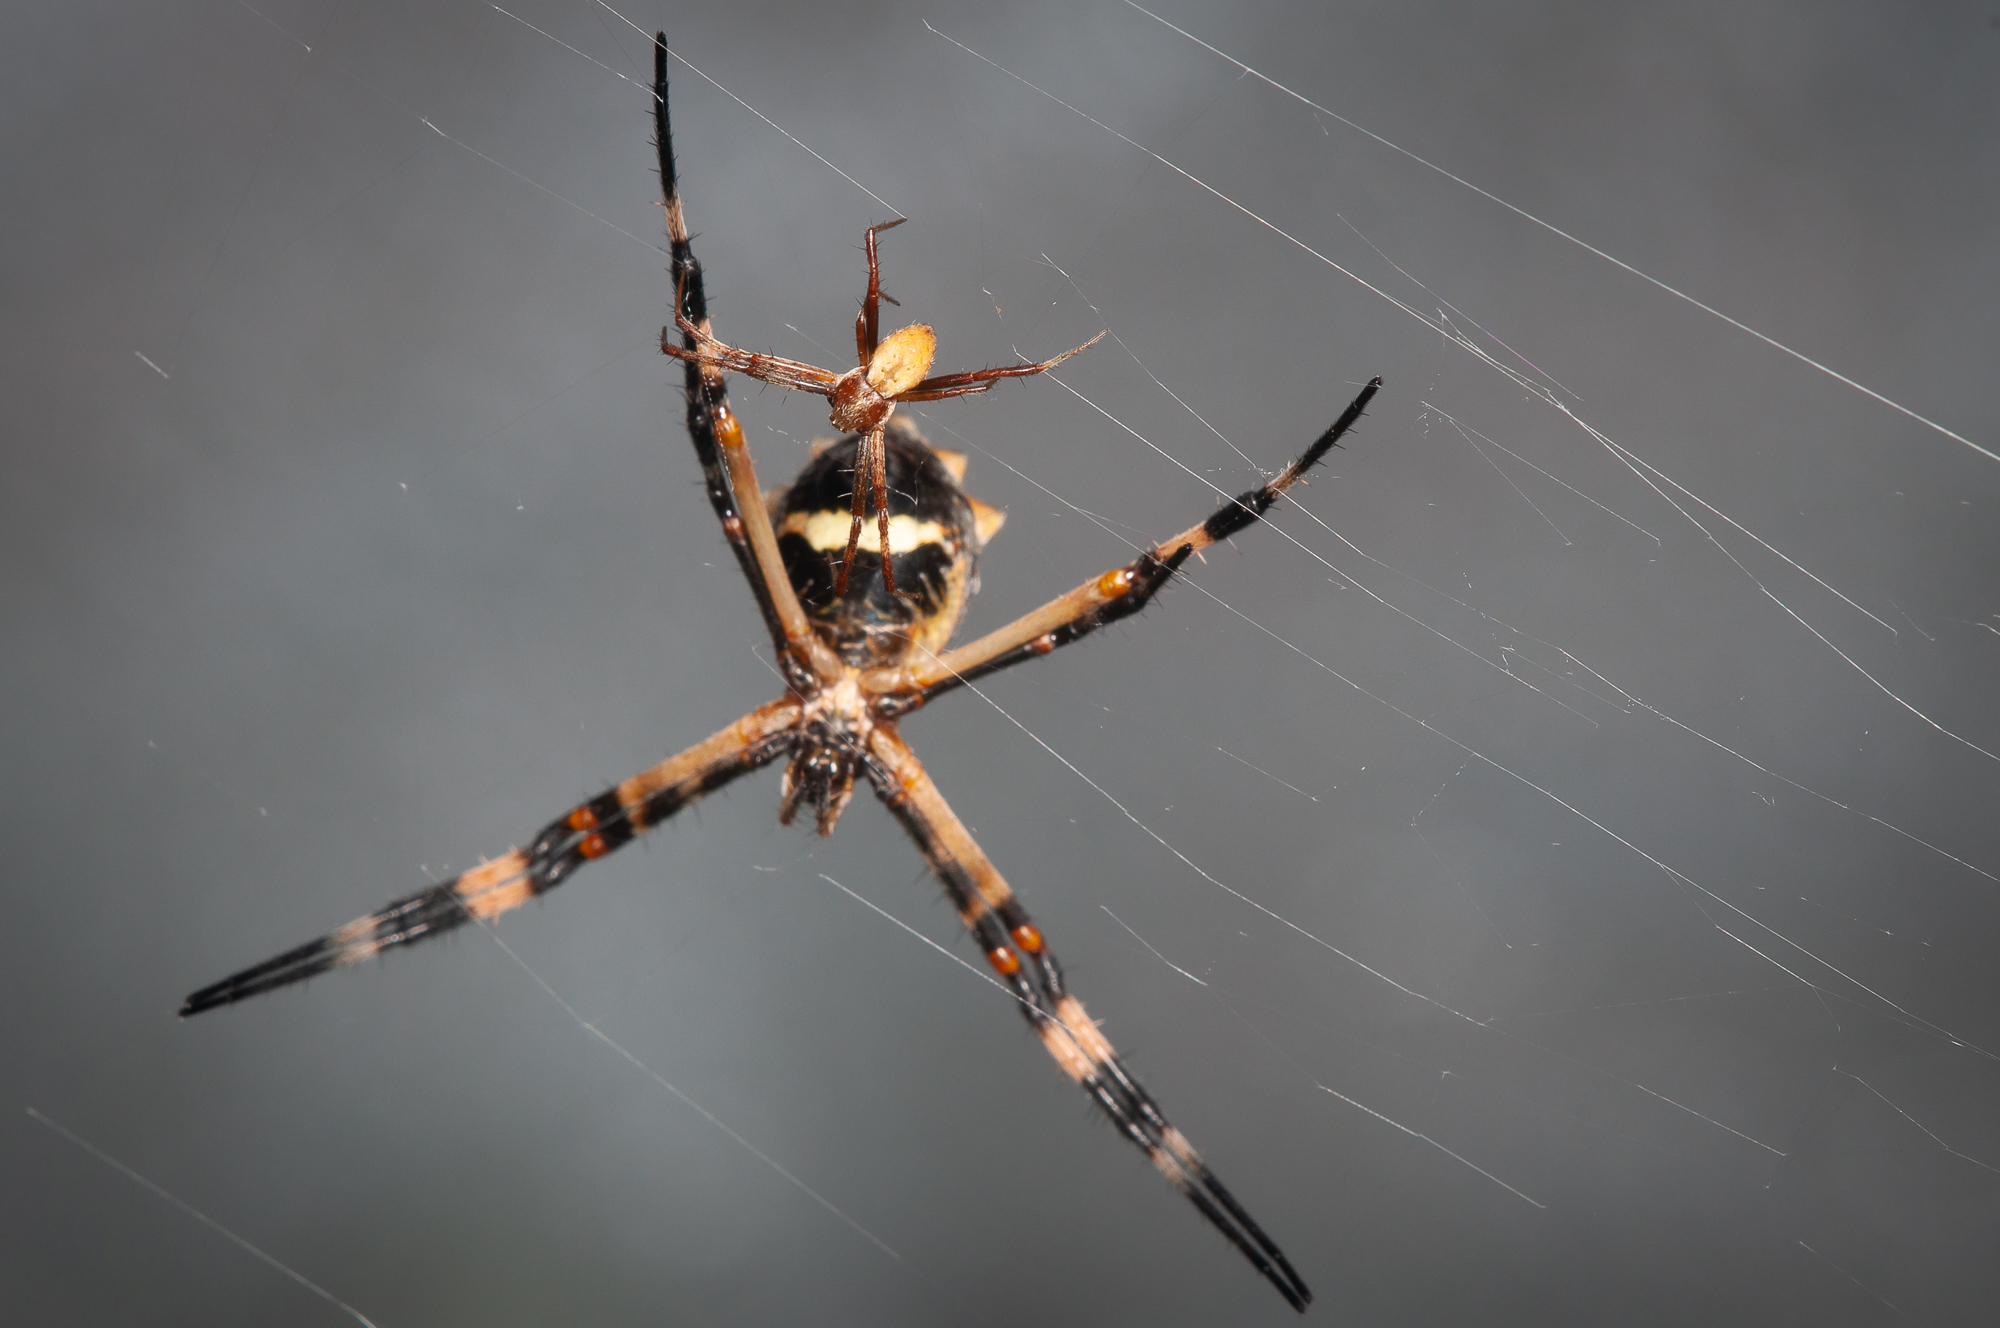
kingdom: Animalia
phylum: Arthropoda
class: Arachnida
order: Araneae
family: Araneidae
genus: Argiope
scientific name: Argiope argentata
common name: Orb weavers
